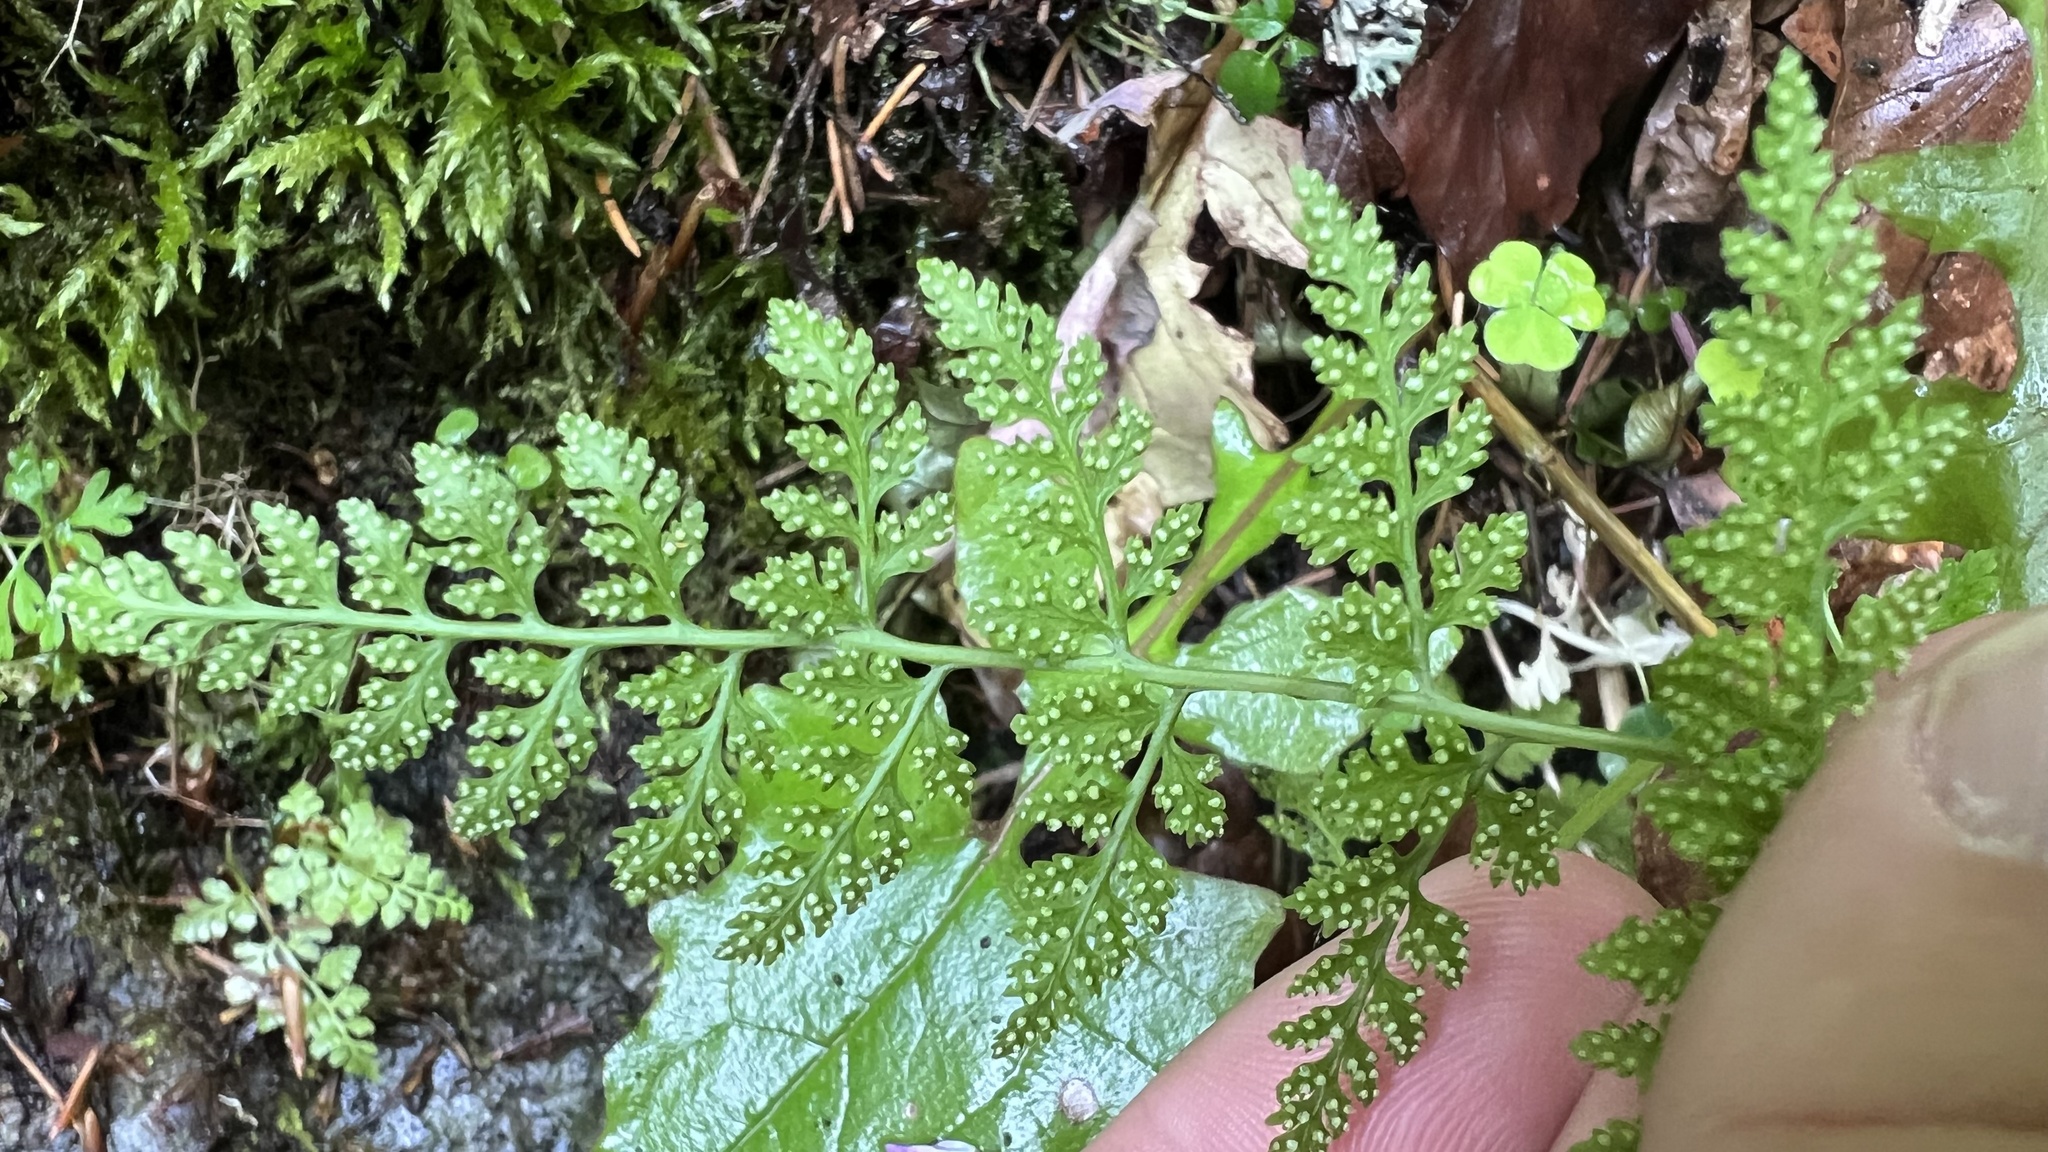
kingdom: Plantae
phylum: Tracheophyta
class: Polypodiopsida
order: Polypodiales
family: Cystopteridaceae
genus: Cystopteris
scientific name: Cystopteris fragilis
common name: Brittle bladder fern
